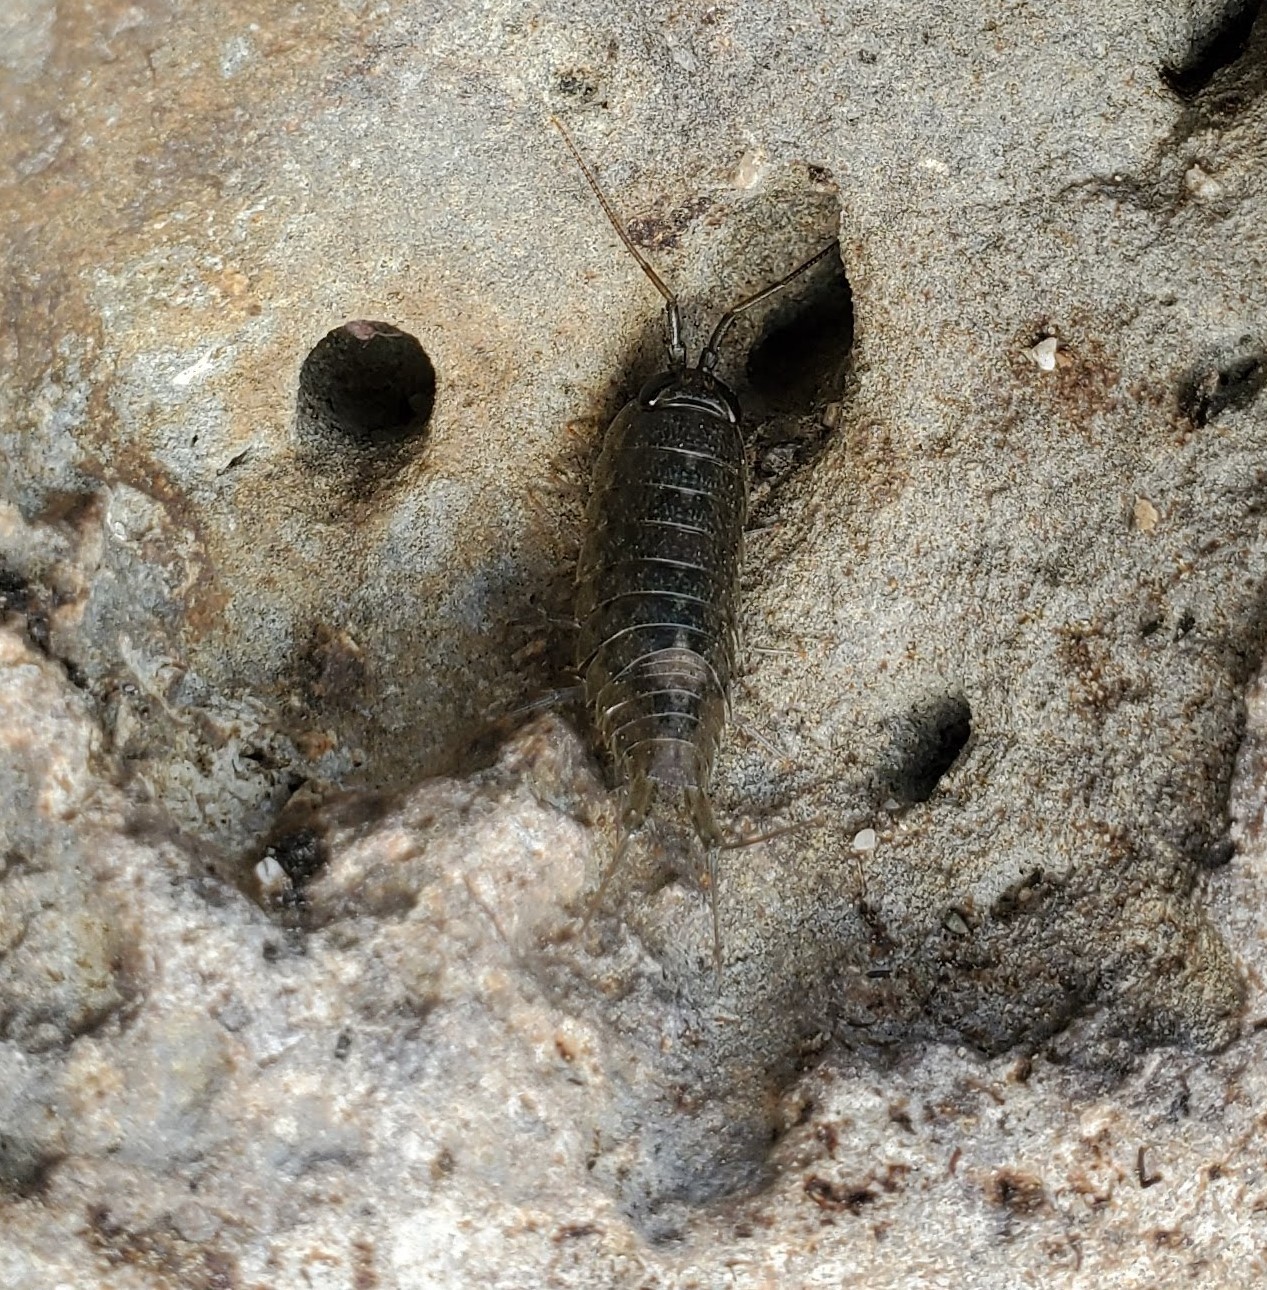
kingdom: Animalia
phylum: Arthropoda
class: Malacostraca
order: Isopoda
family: Ligiidae
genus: Ligia
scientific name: Ligia occidentalis
